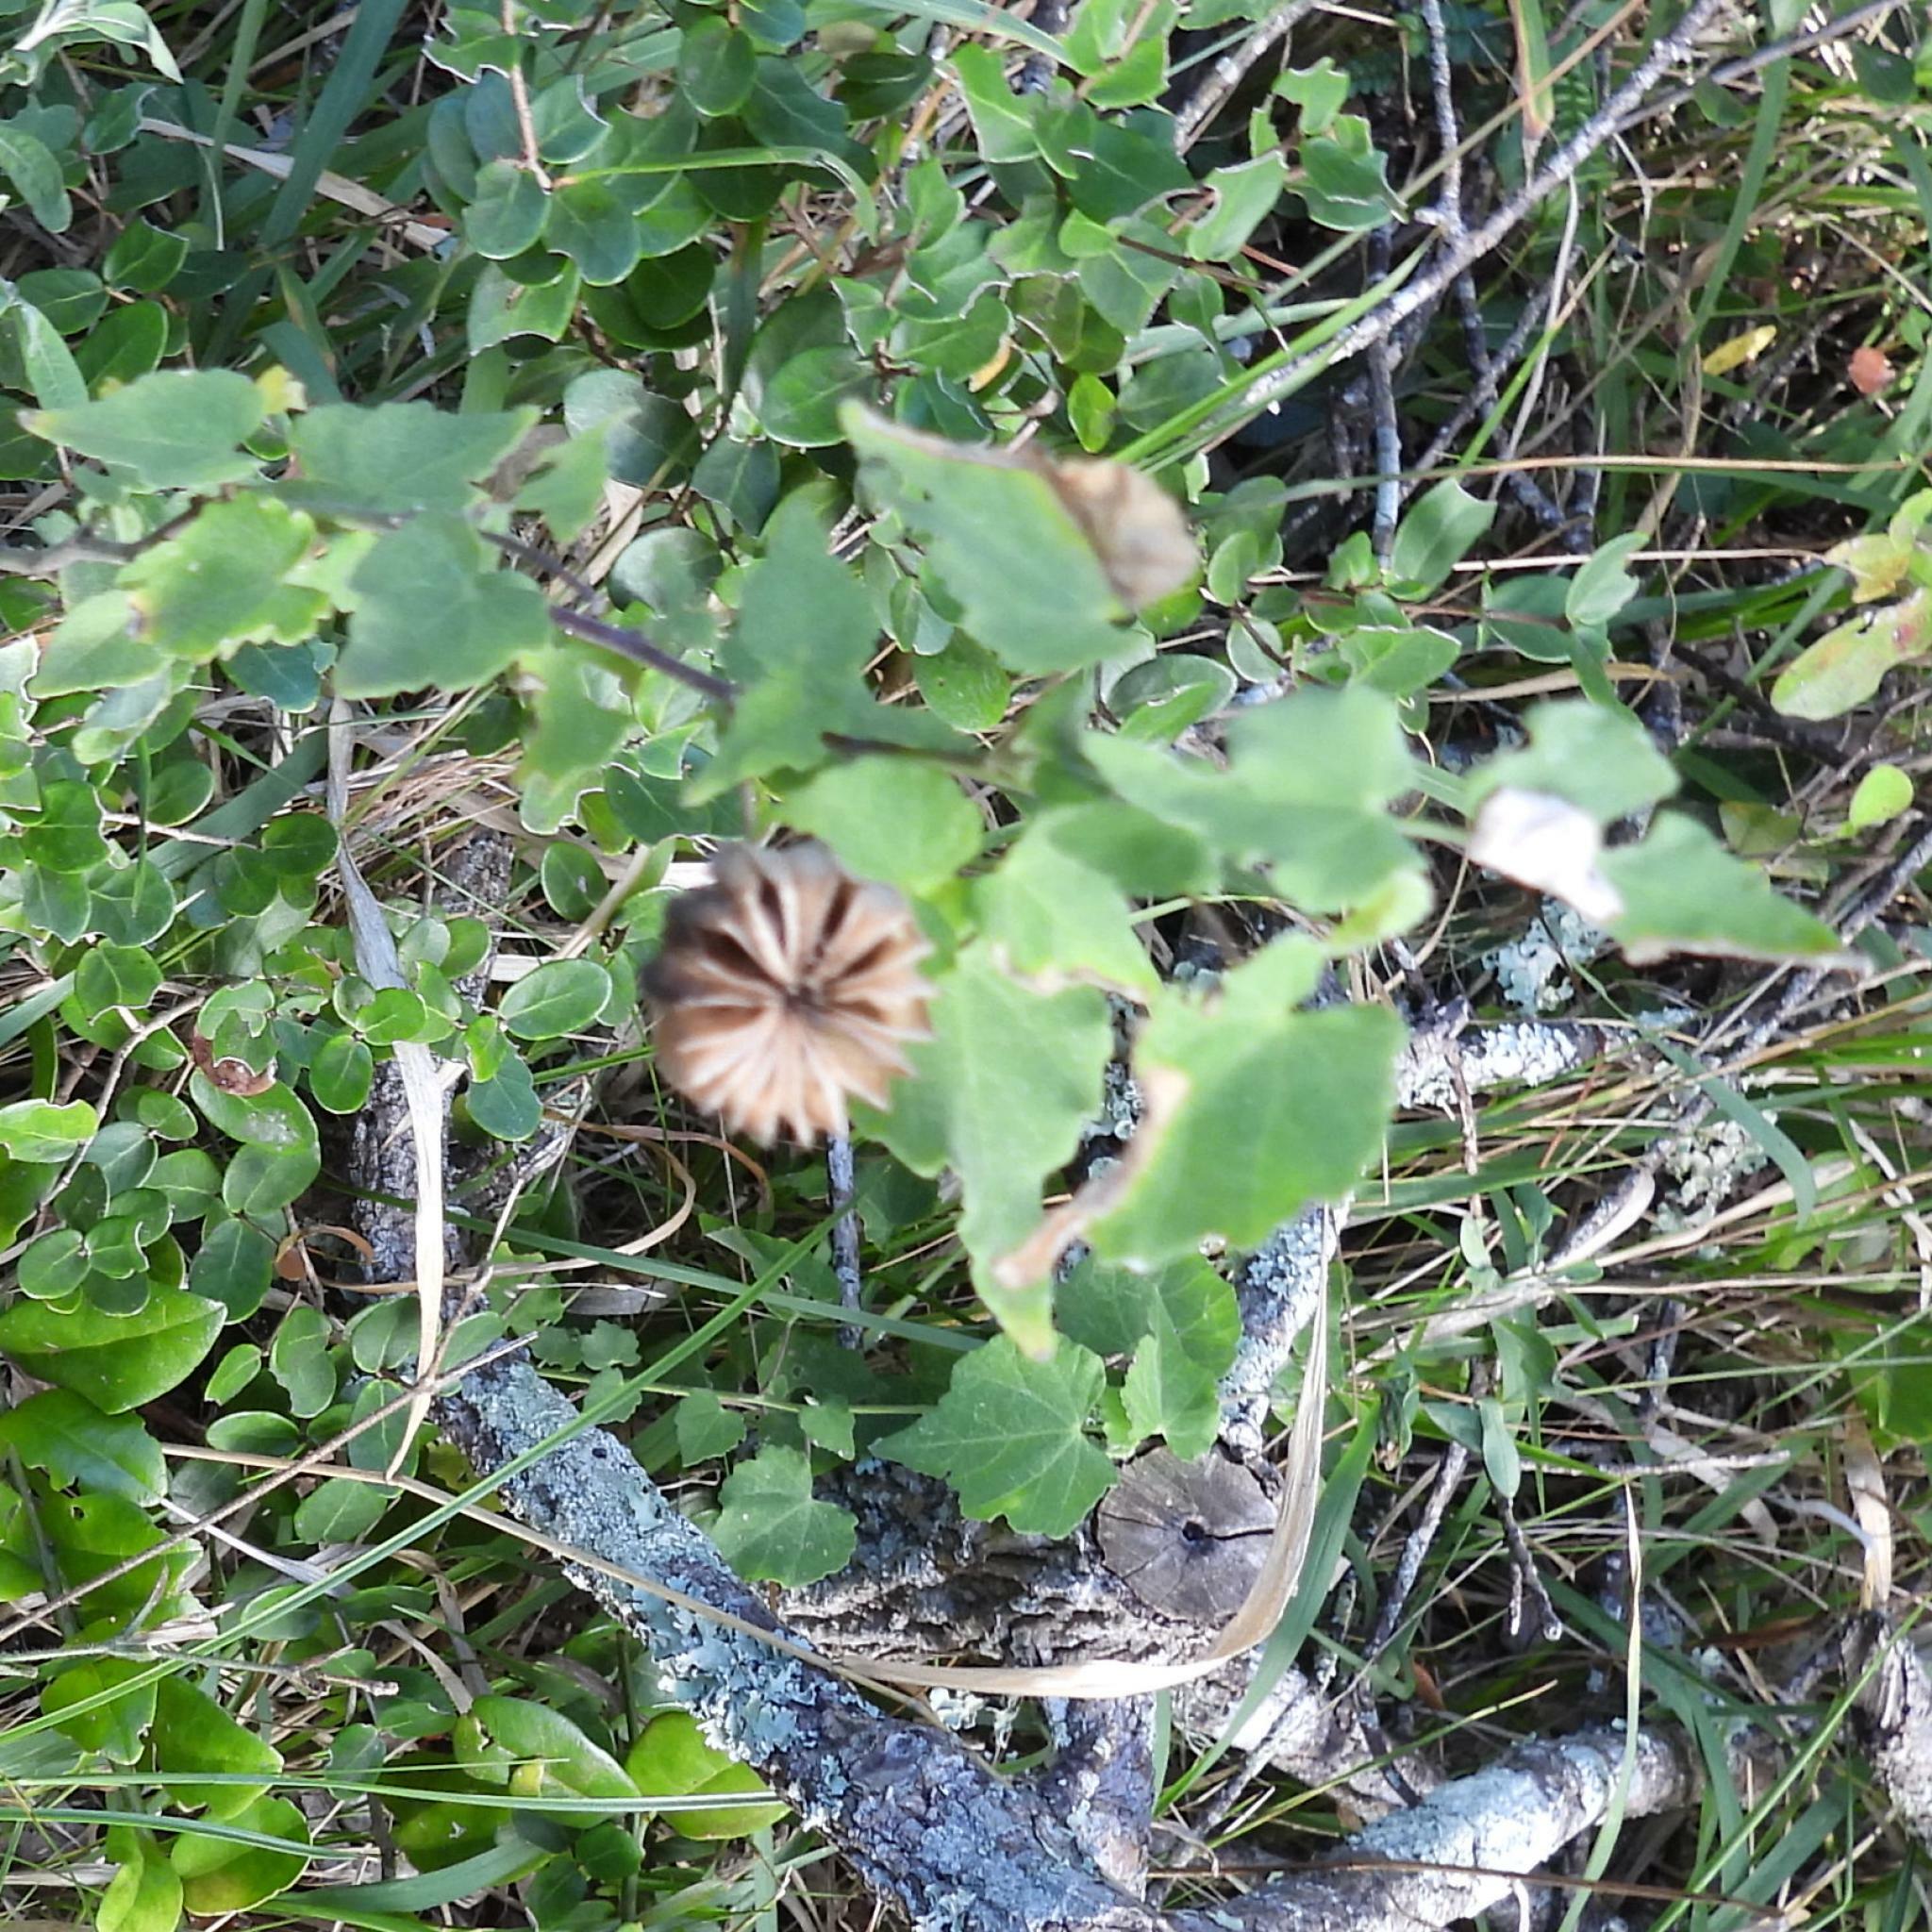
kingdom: Plantae
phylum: Tracheophyta
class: Magnoliopsida
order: Malvales
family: Malvaceae
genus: Abutilon
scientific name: Abutilon sonneratianum
